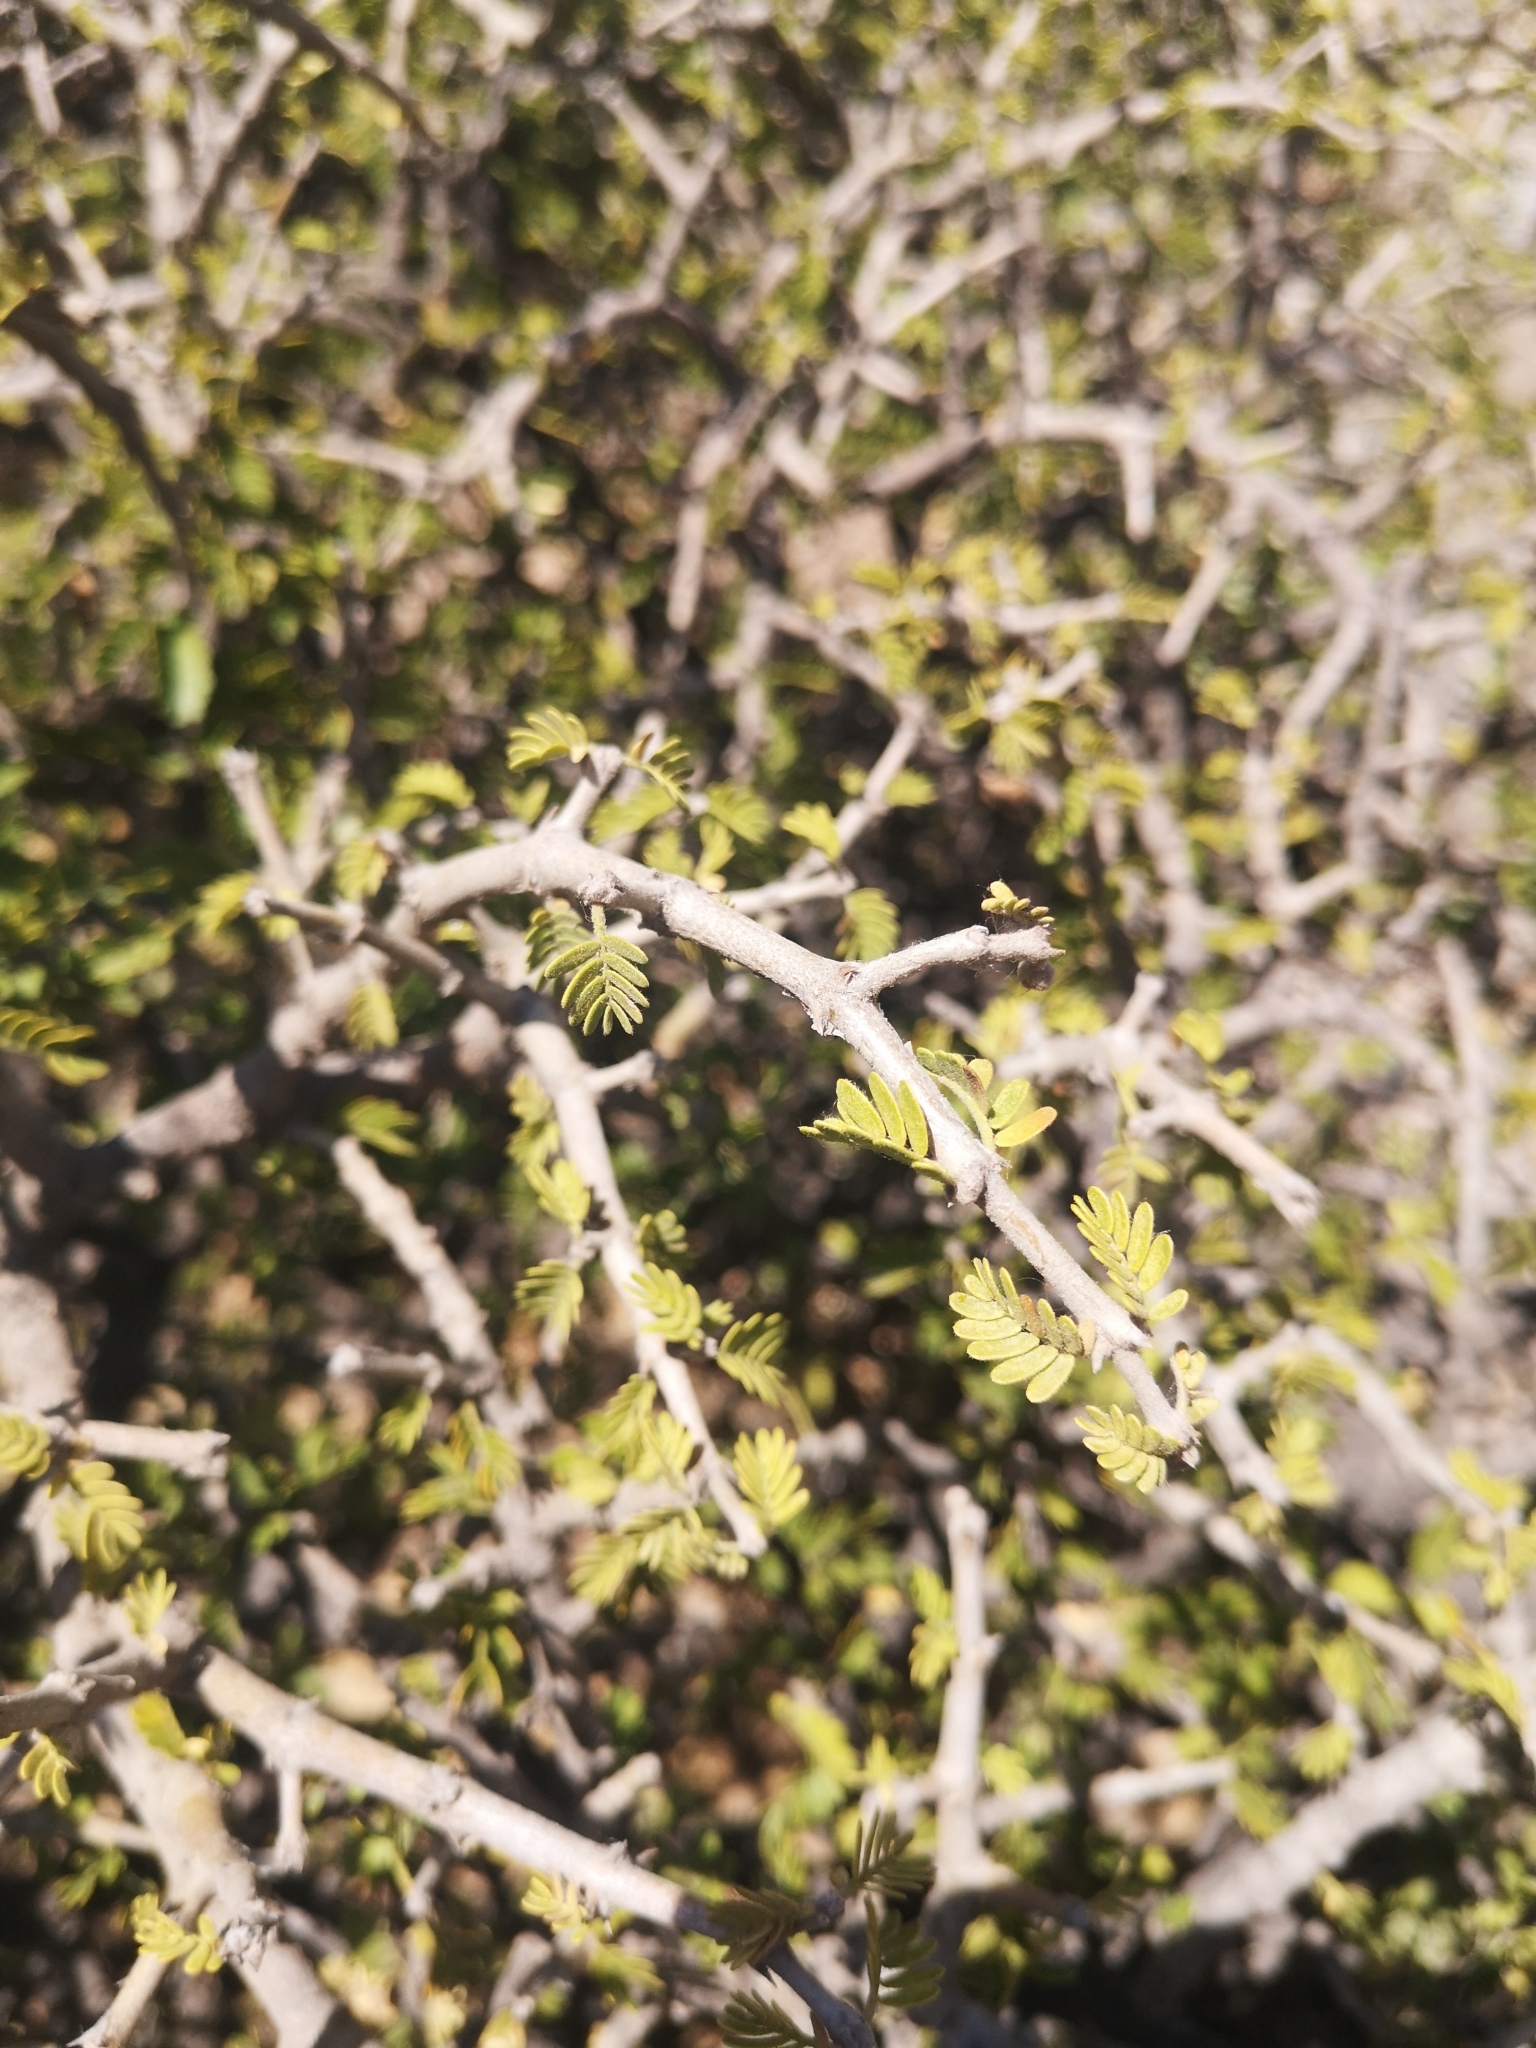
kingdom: Plantae
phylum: Tracheophyta
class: Magnoliopsida
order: Zygophyllales
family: Zygophyllaceae
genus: Porlieria
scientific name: Porlieria chilensis
